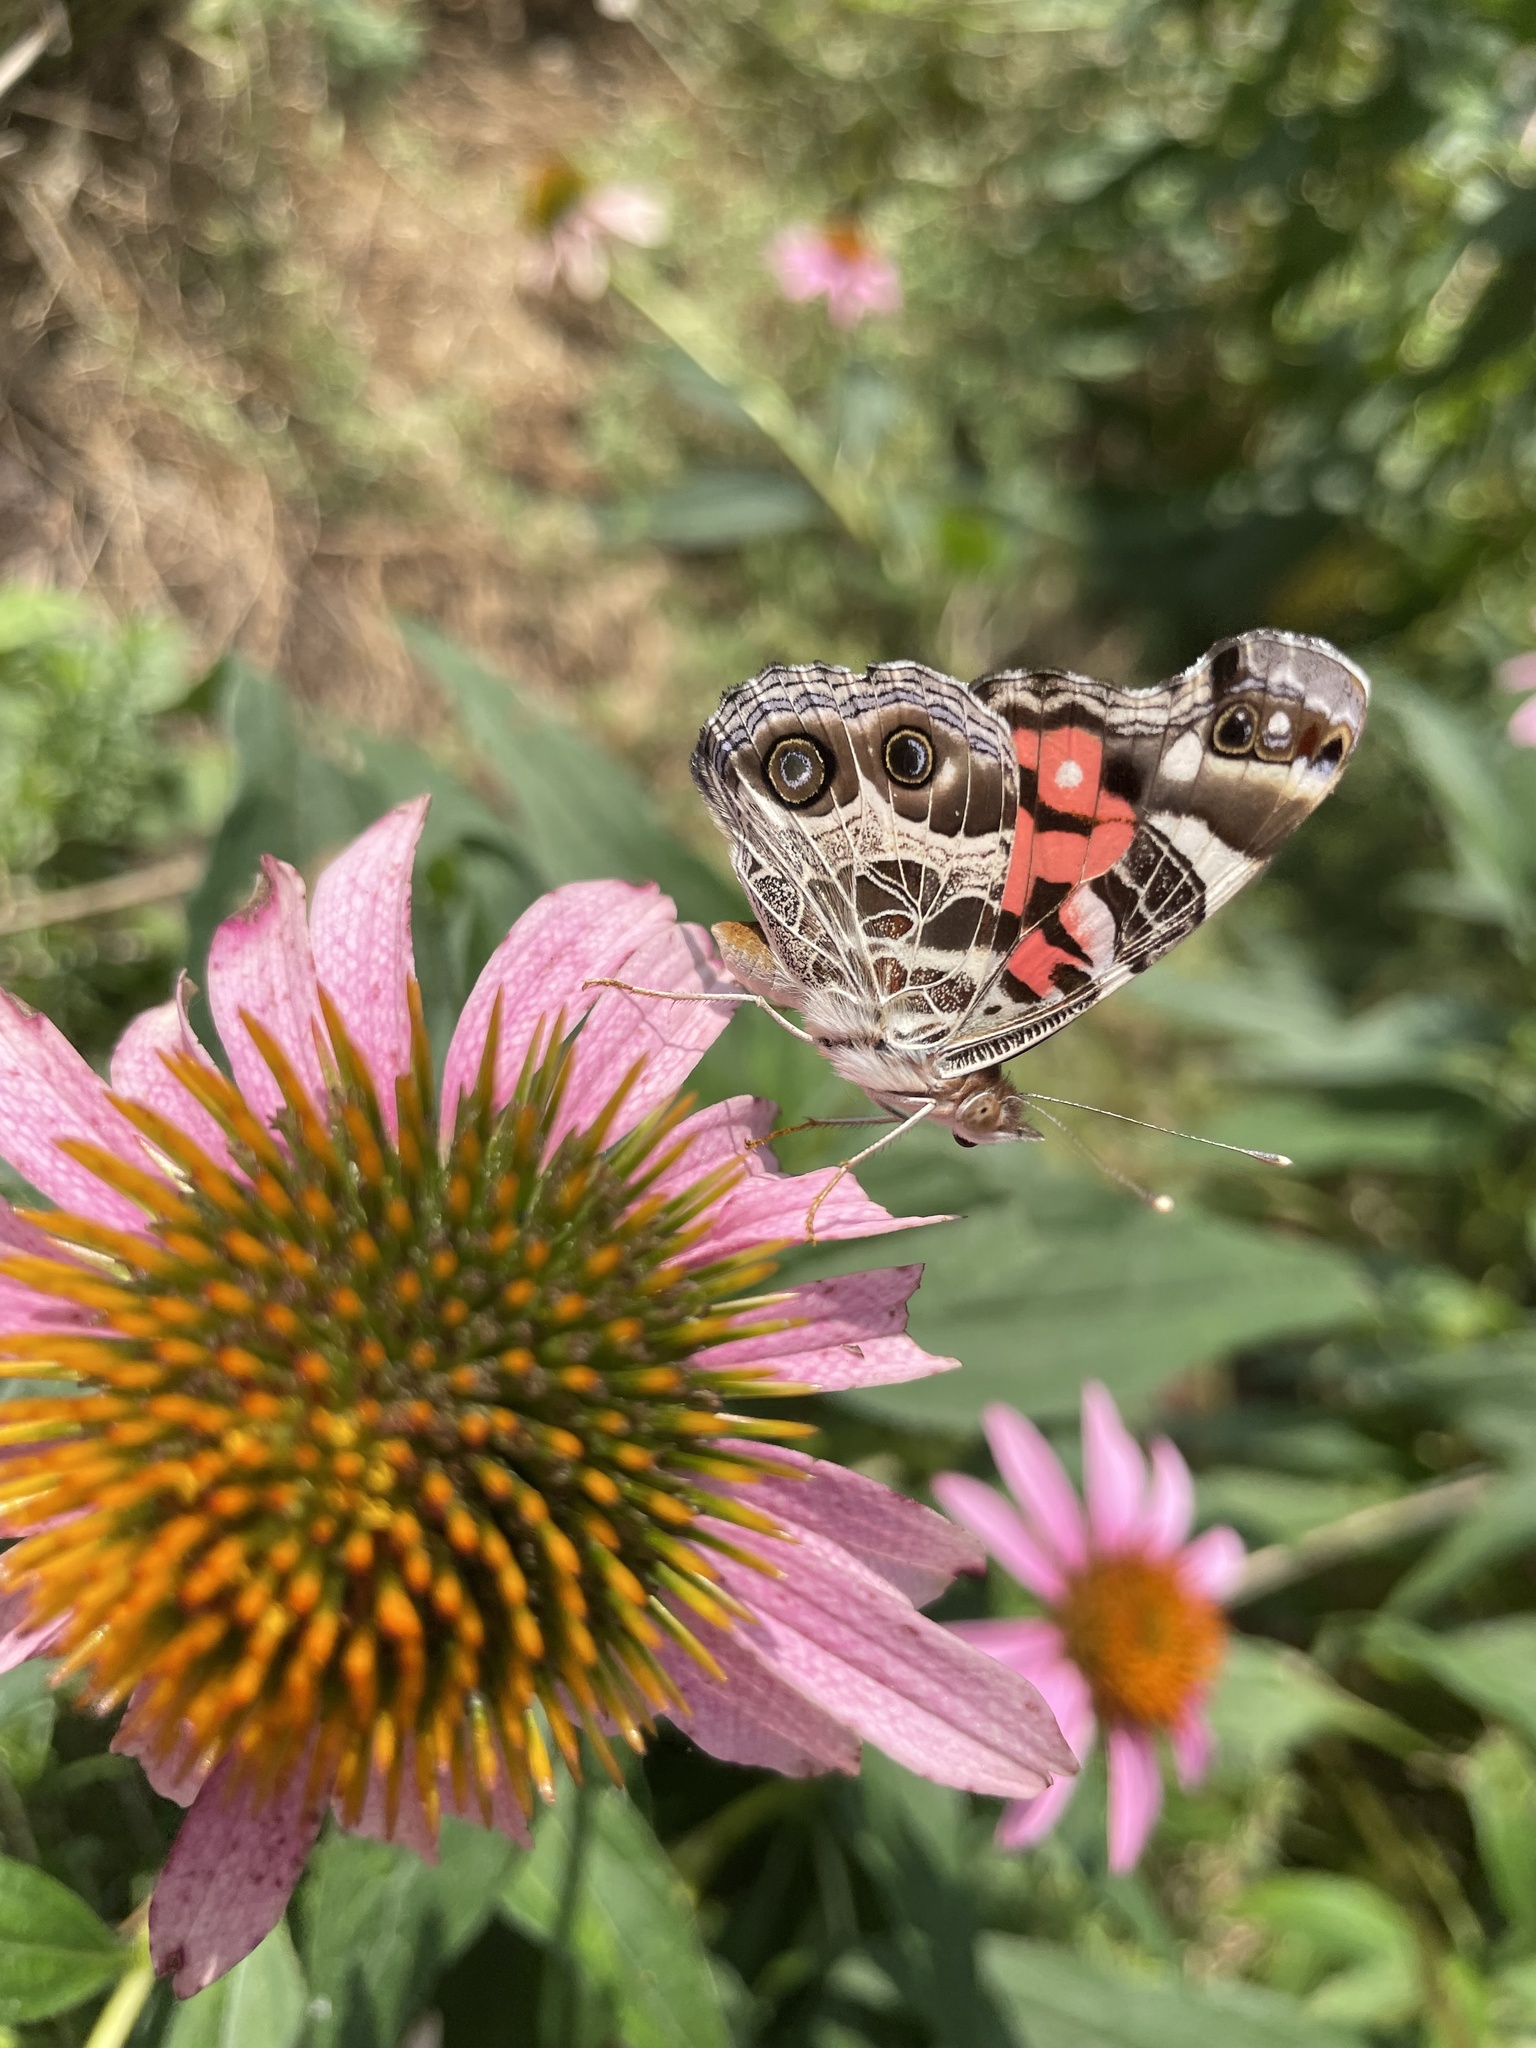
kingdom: Animalia
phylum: Arthropoda
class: Insecta
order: Lepidoptera
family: Nymphalidae
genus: Vanessa
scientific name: Vanessa virginiensis
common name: American lady
